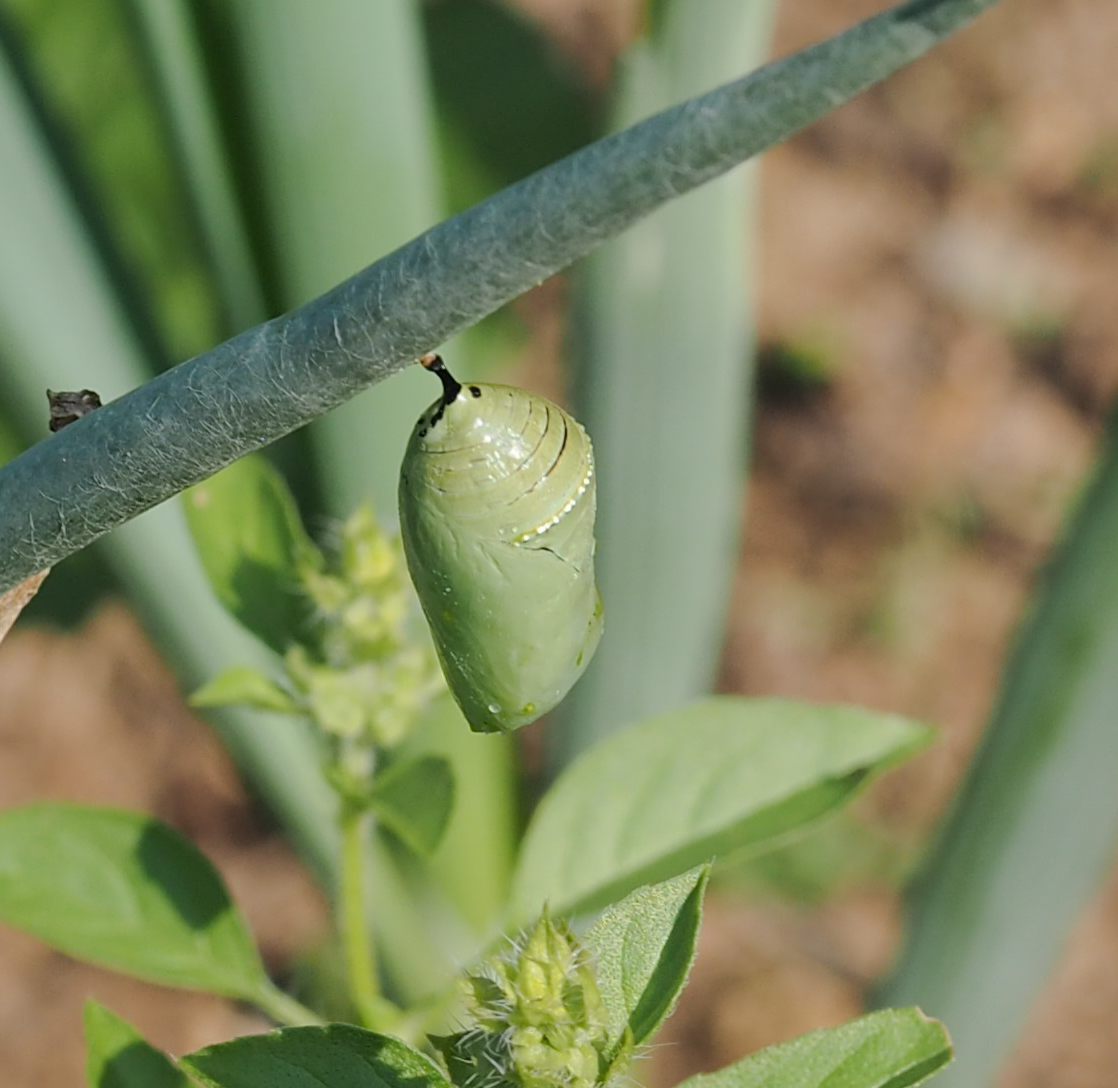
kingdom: Animalia
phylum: Arthropoda
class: Insecta
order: Lepidoptera
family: Nymphalidae
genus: Danaus
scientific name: Danaus plexippus
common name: Monarch
